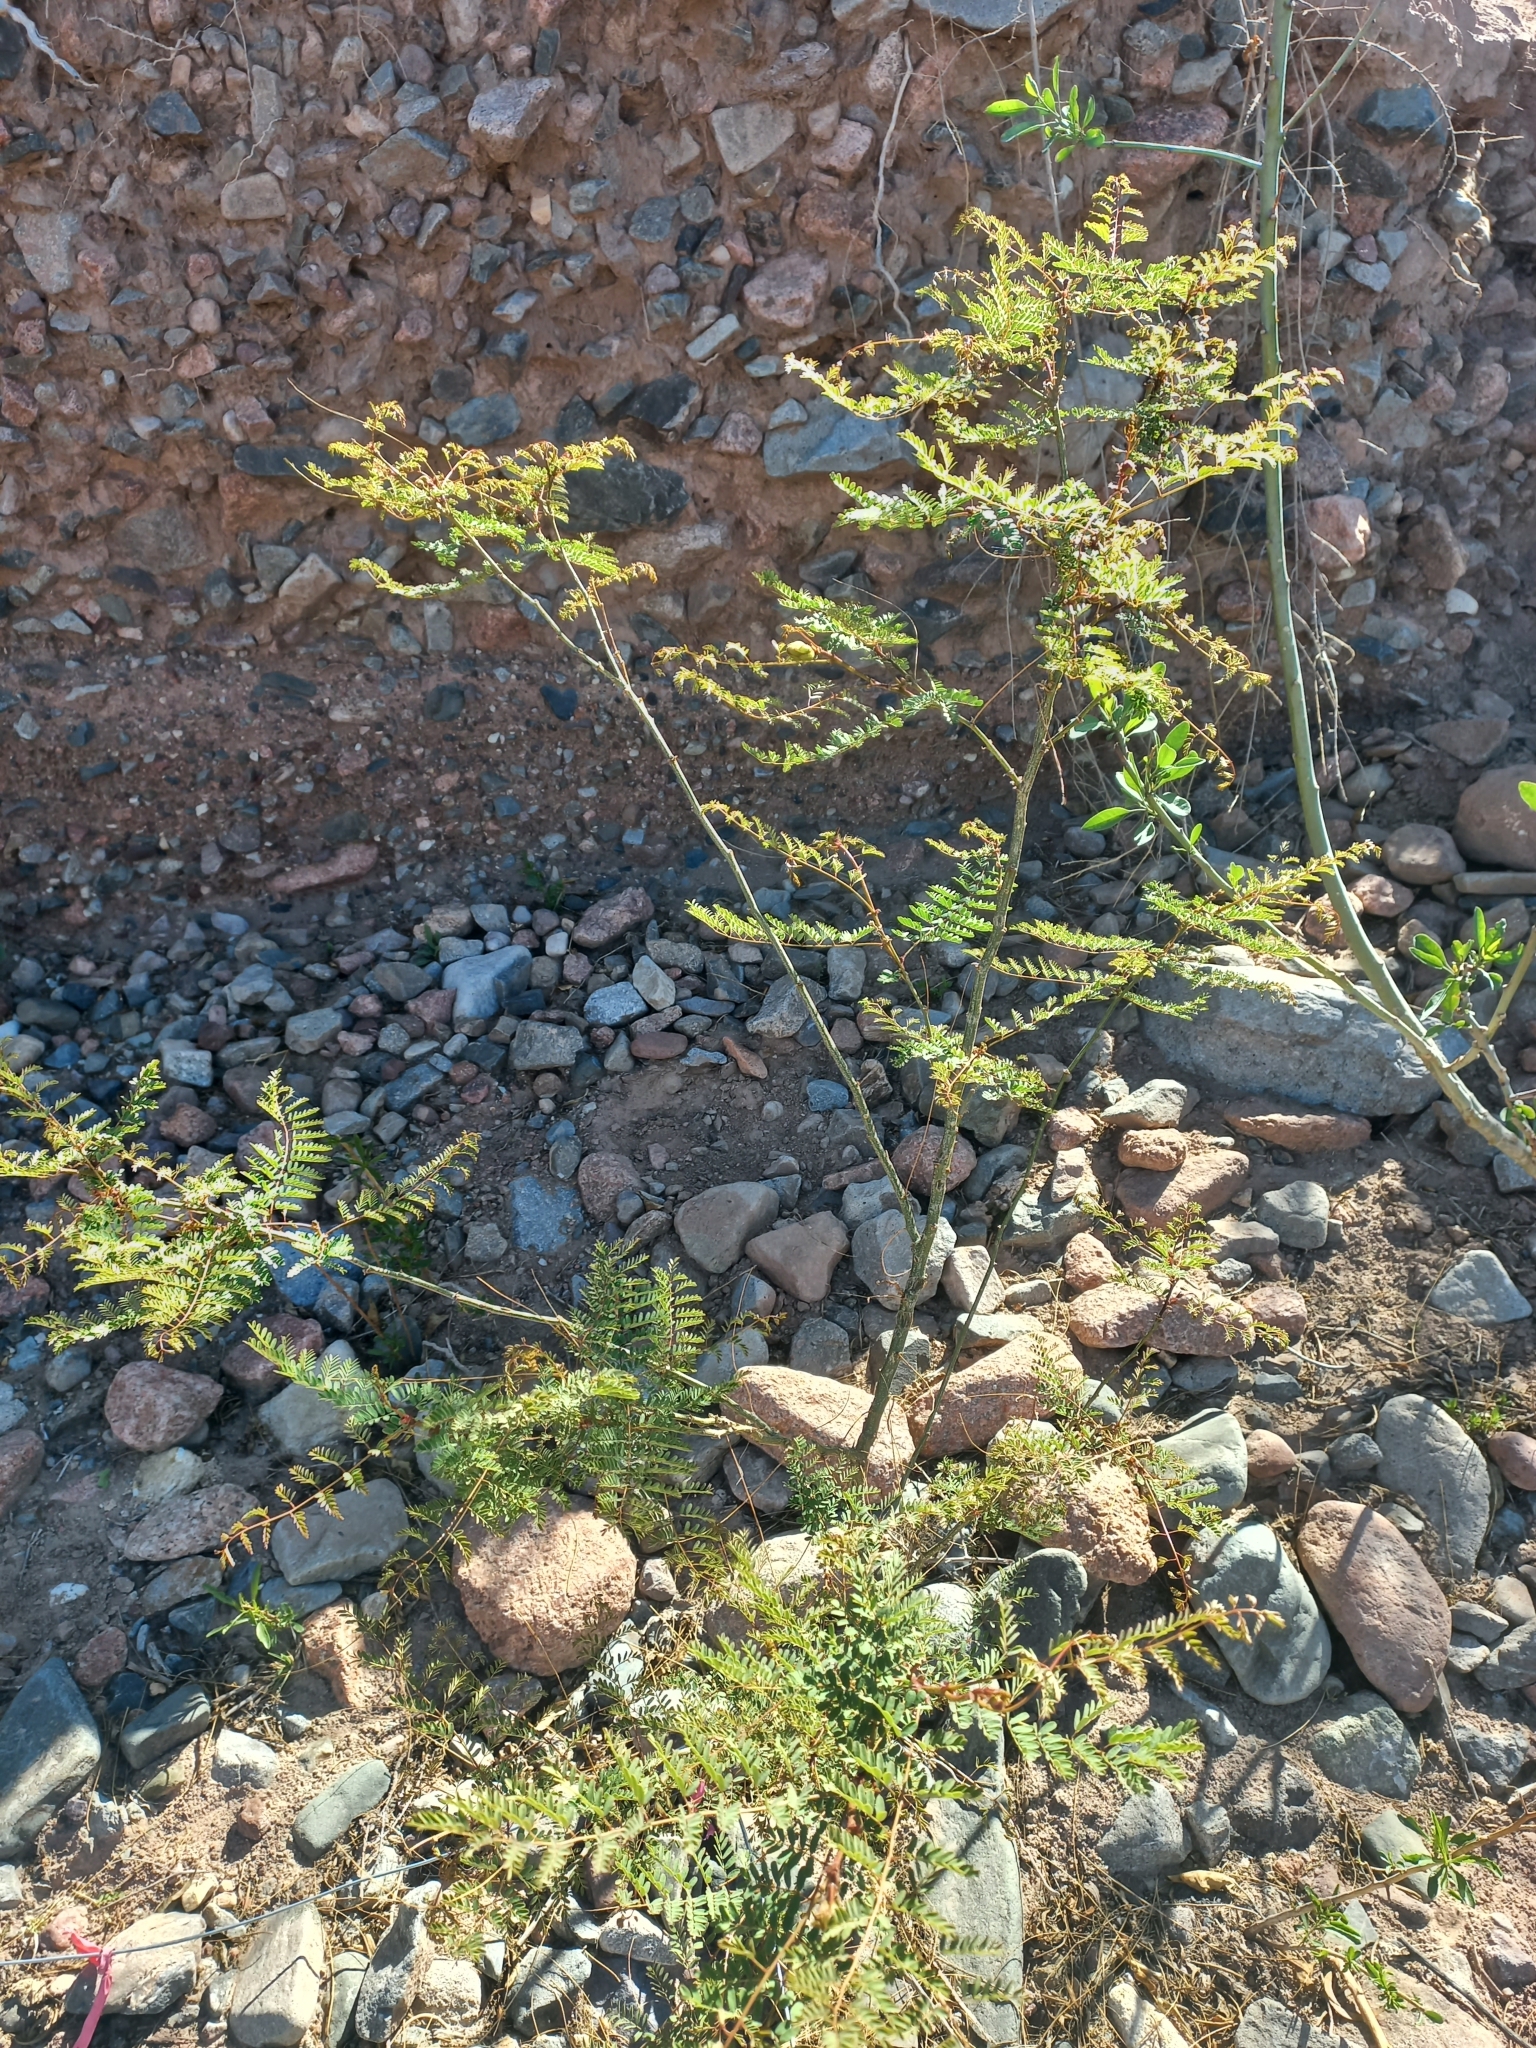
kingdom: Plantae
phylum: Tracheophyta
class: Magnoliopsida
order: Fabales
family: Fabaceae
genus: Erythrostemon
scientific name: Erythrostemon gilliesii
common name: Bird-of-paradise shrub
